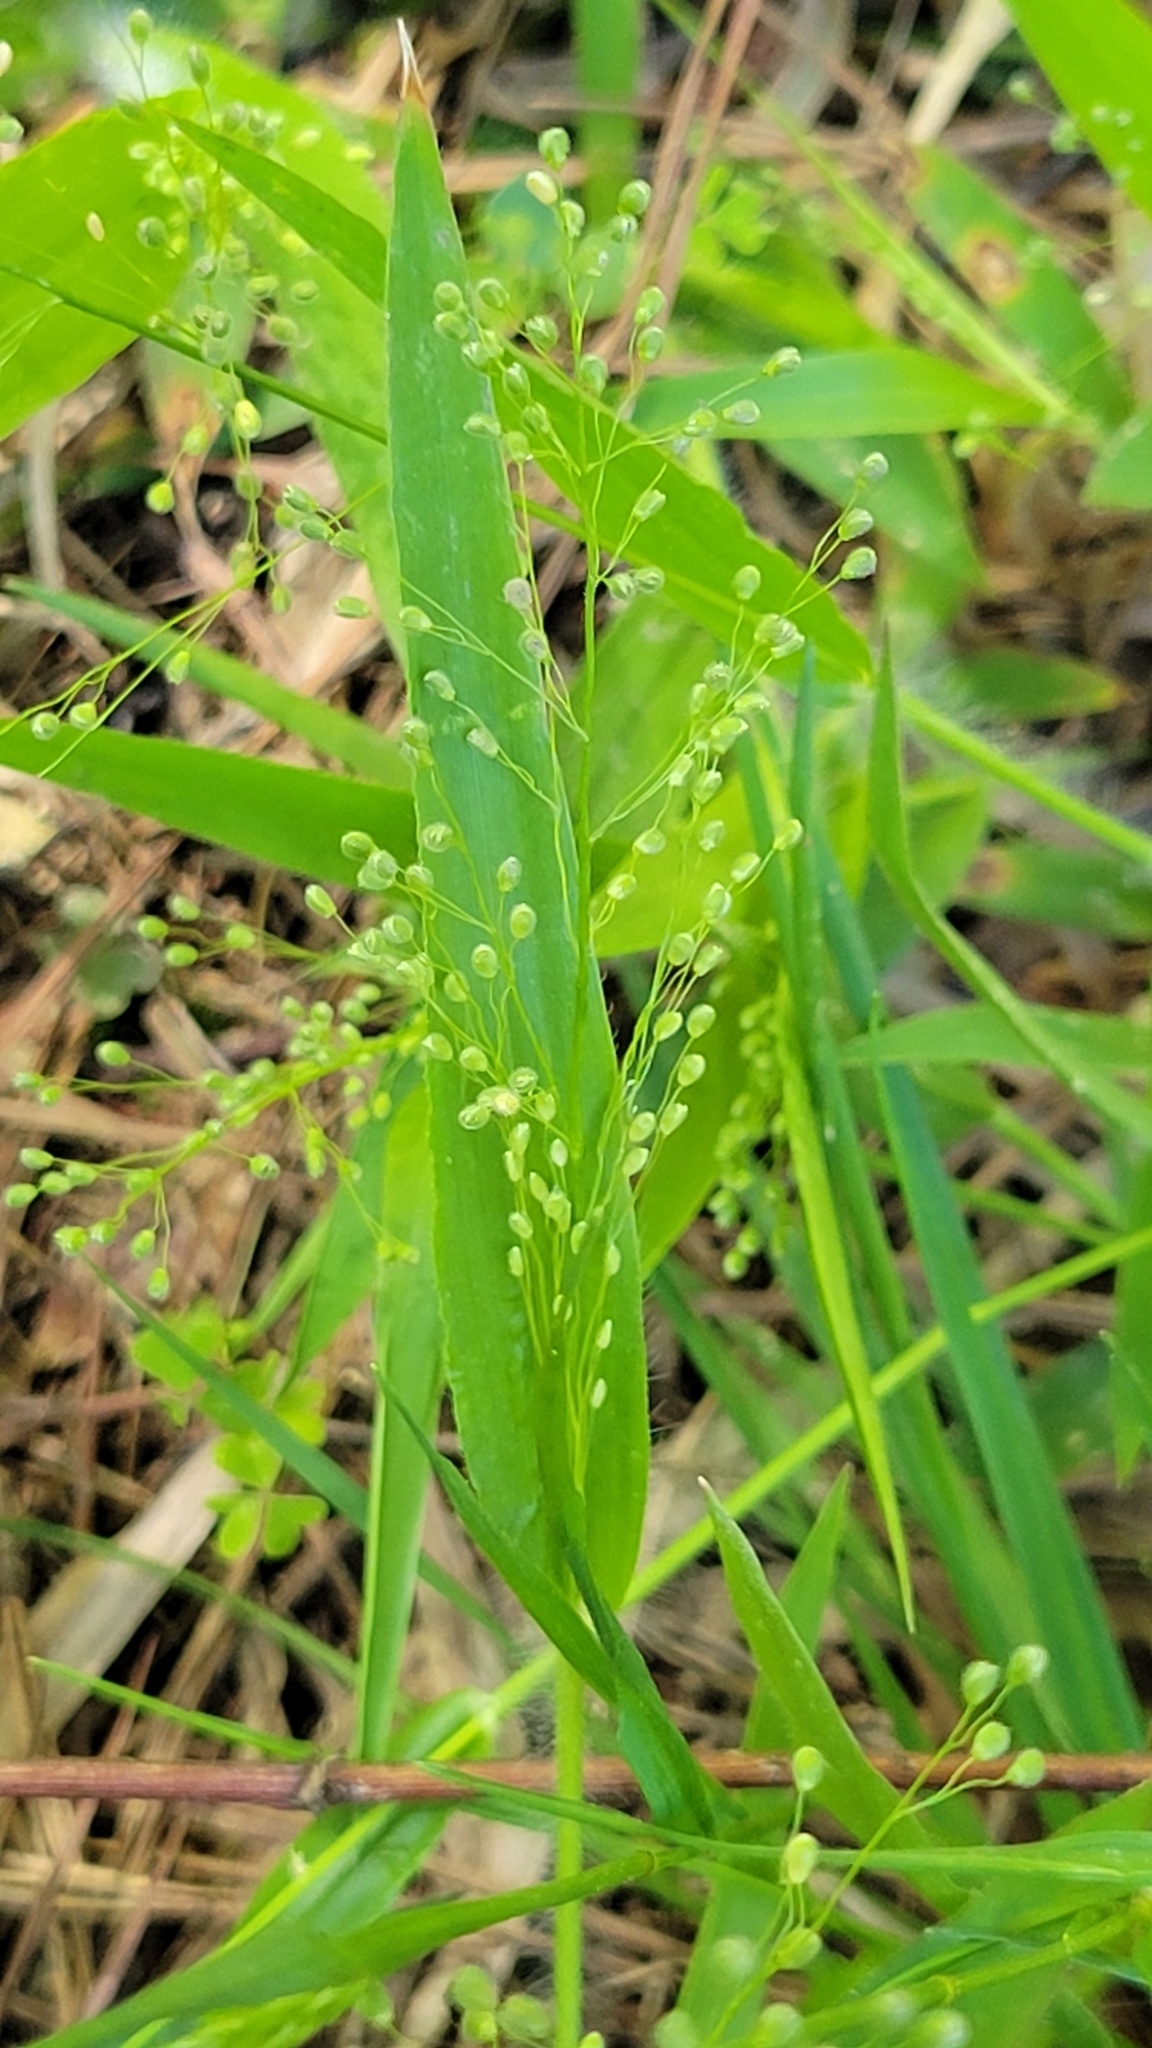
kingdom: Plantae
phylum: Tracheophyta
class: Liliopsida
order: Poales
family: Poaceae
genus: Dichanthelium
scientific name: Dichanthelium laxiflorum
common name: Soft-tuft panic grass
